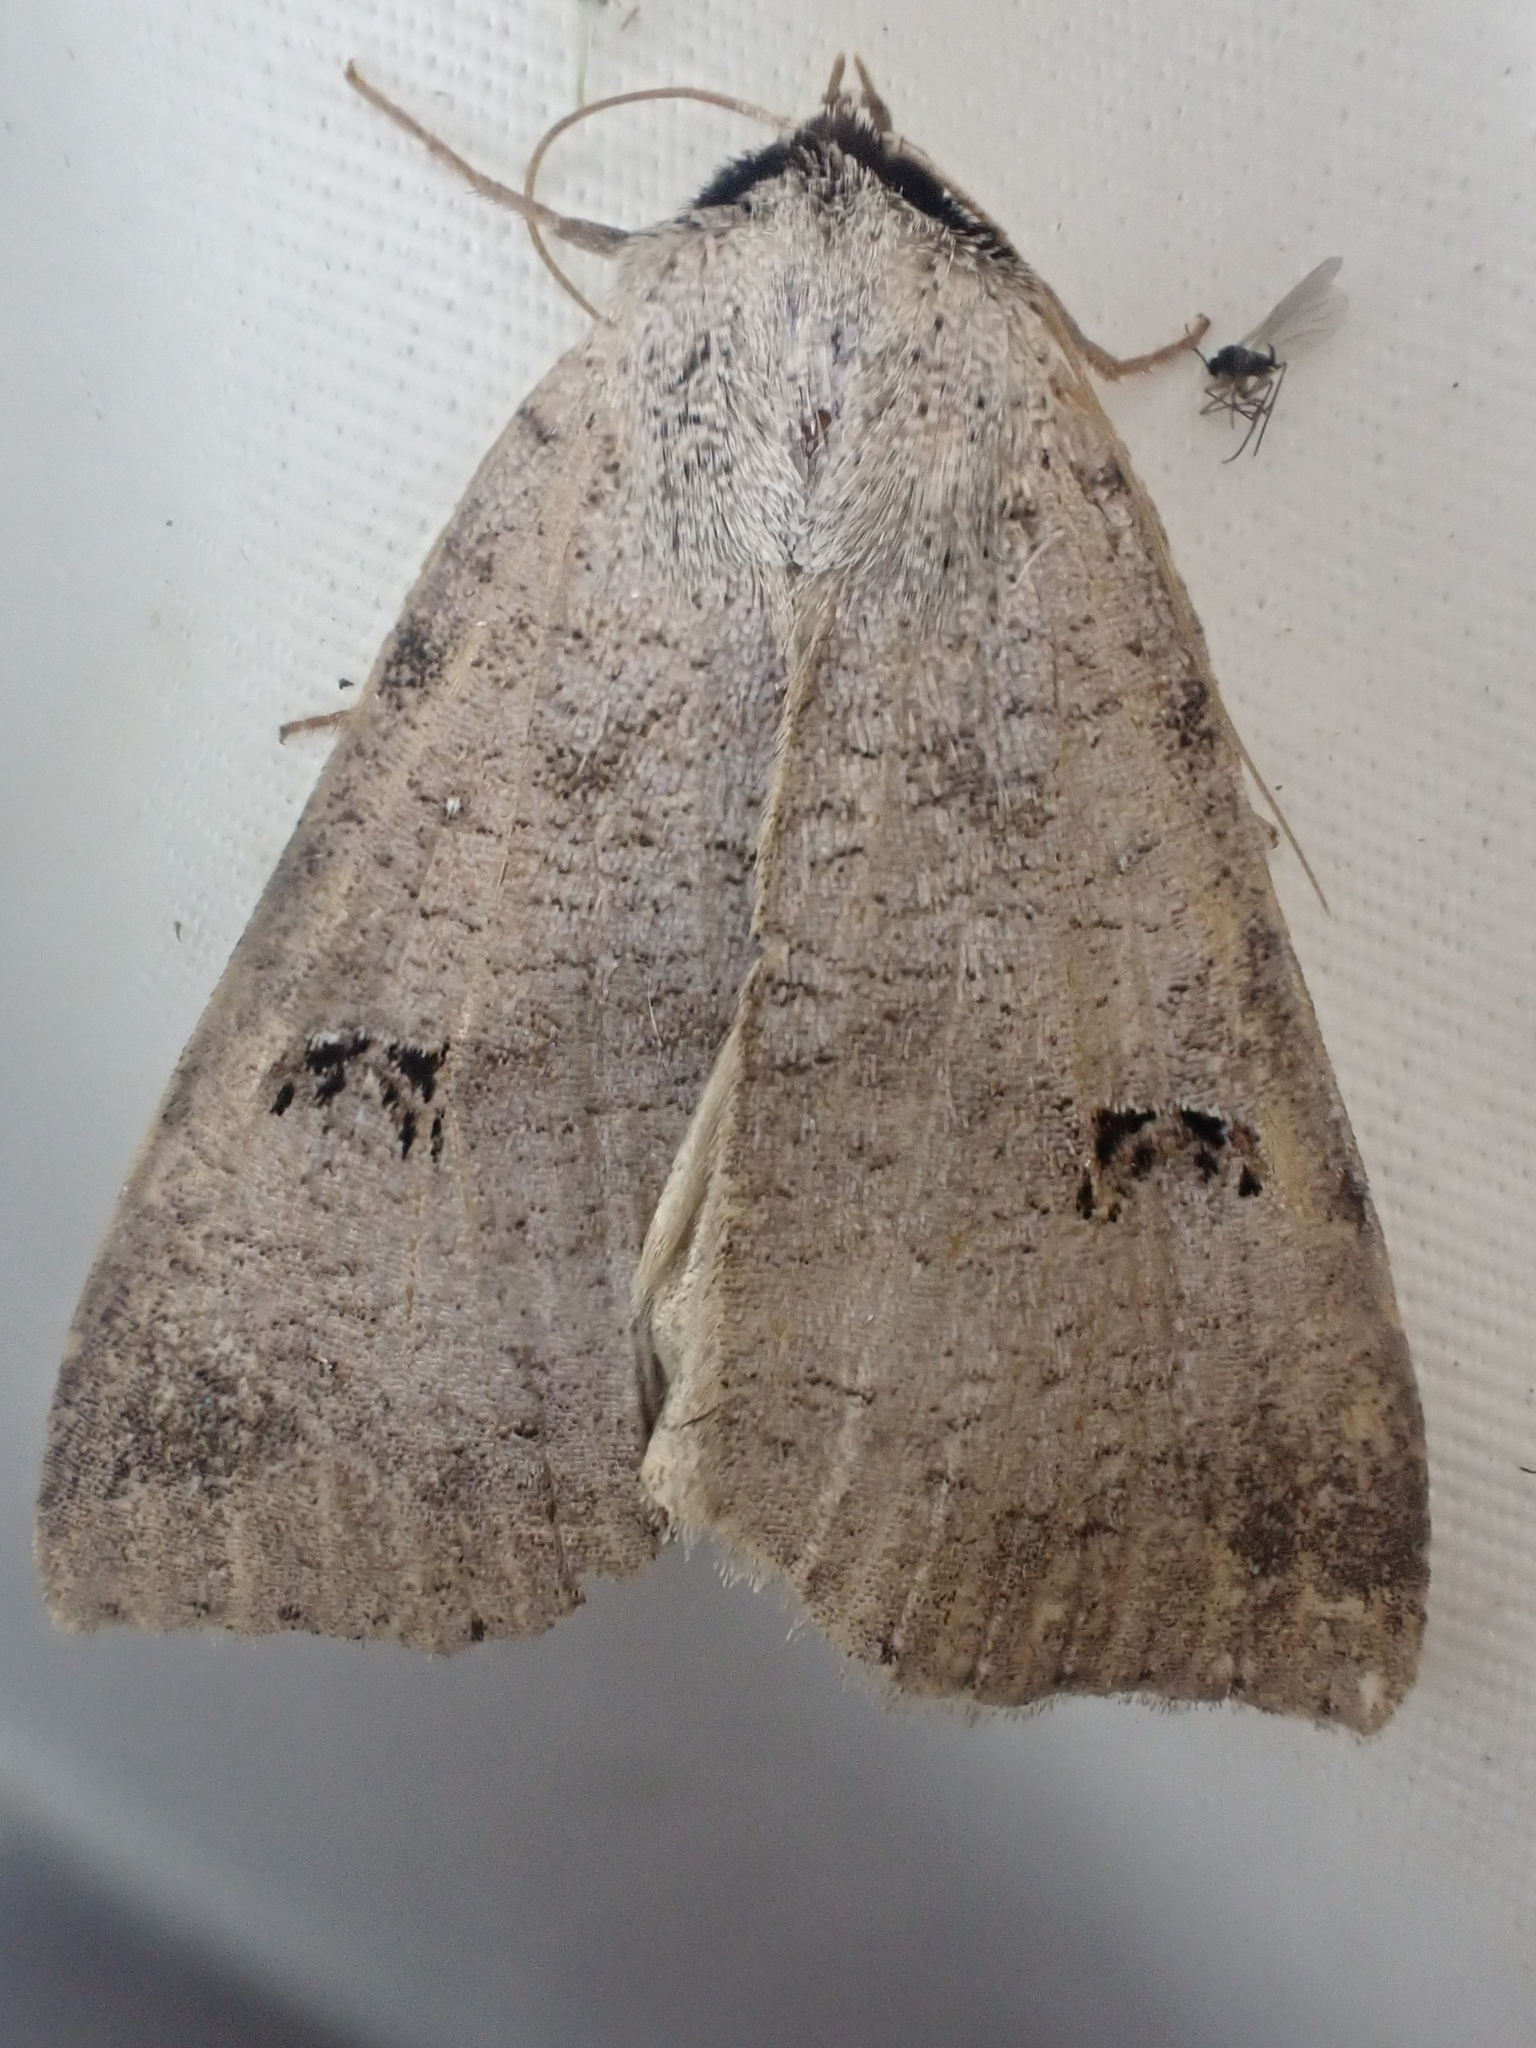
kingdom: Animalia
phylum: Arthropoda
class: Insecta
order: Lepidoptera
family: Erebidae
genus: Lygephila
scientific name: Lygephila victoria
